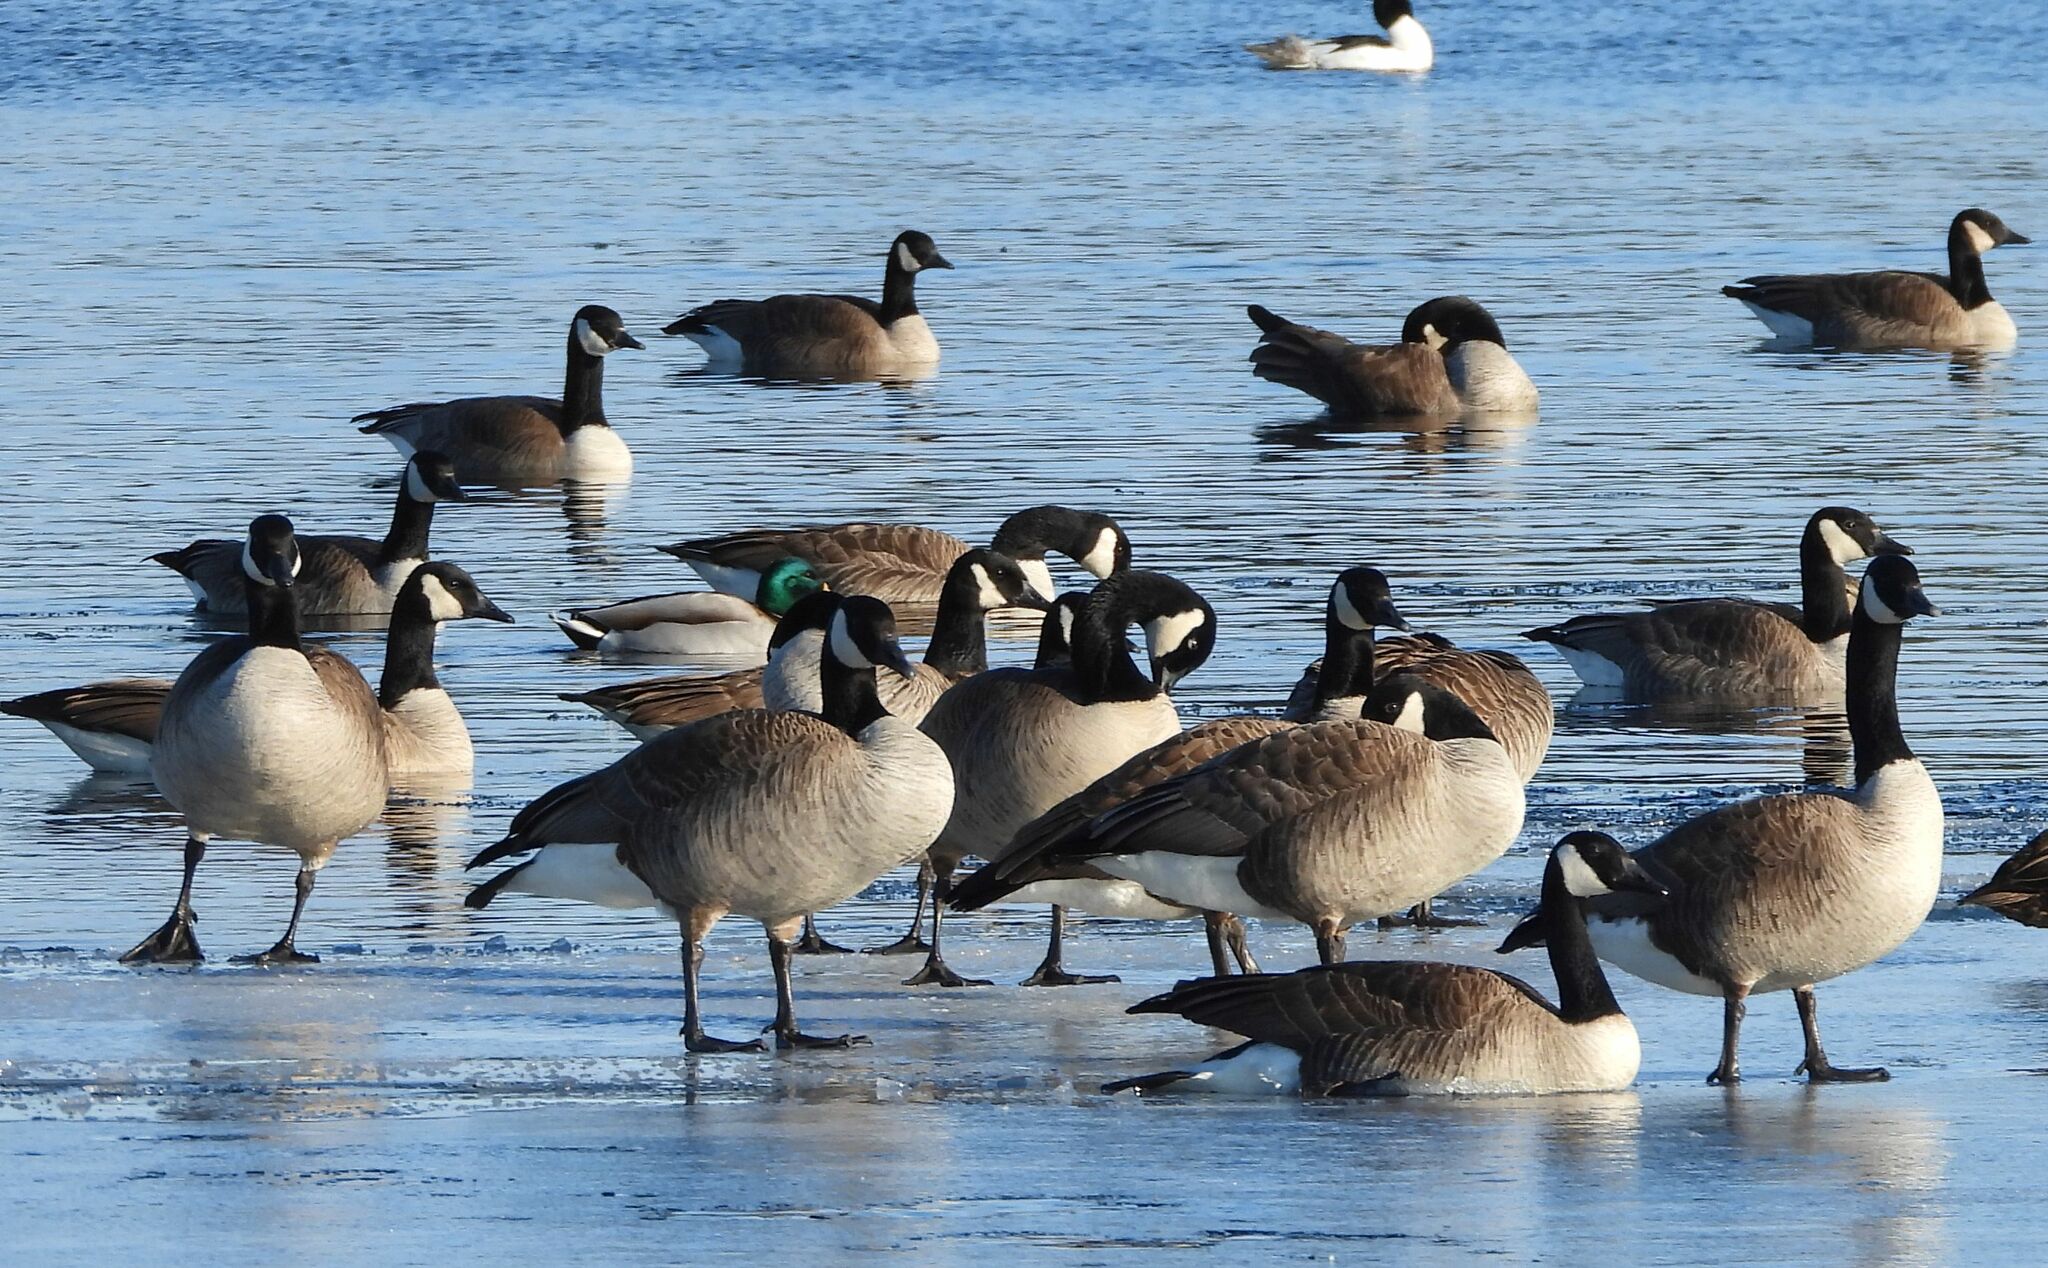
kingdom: Animalia
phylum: Chordata
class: Aves
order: Anseriformes
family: Anatidae
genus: Branta
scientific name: Branta canadensis
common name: Canada goose
